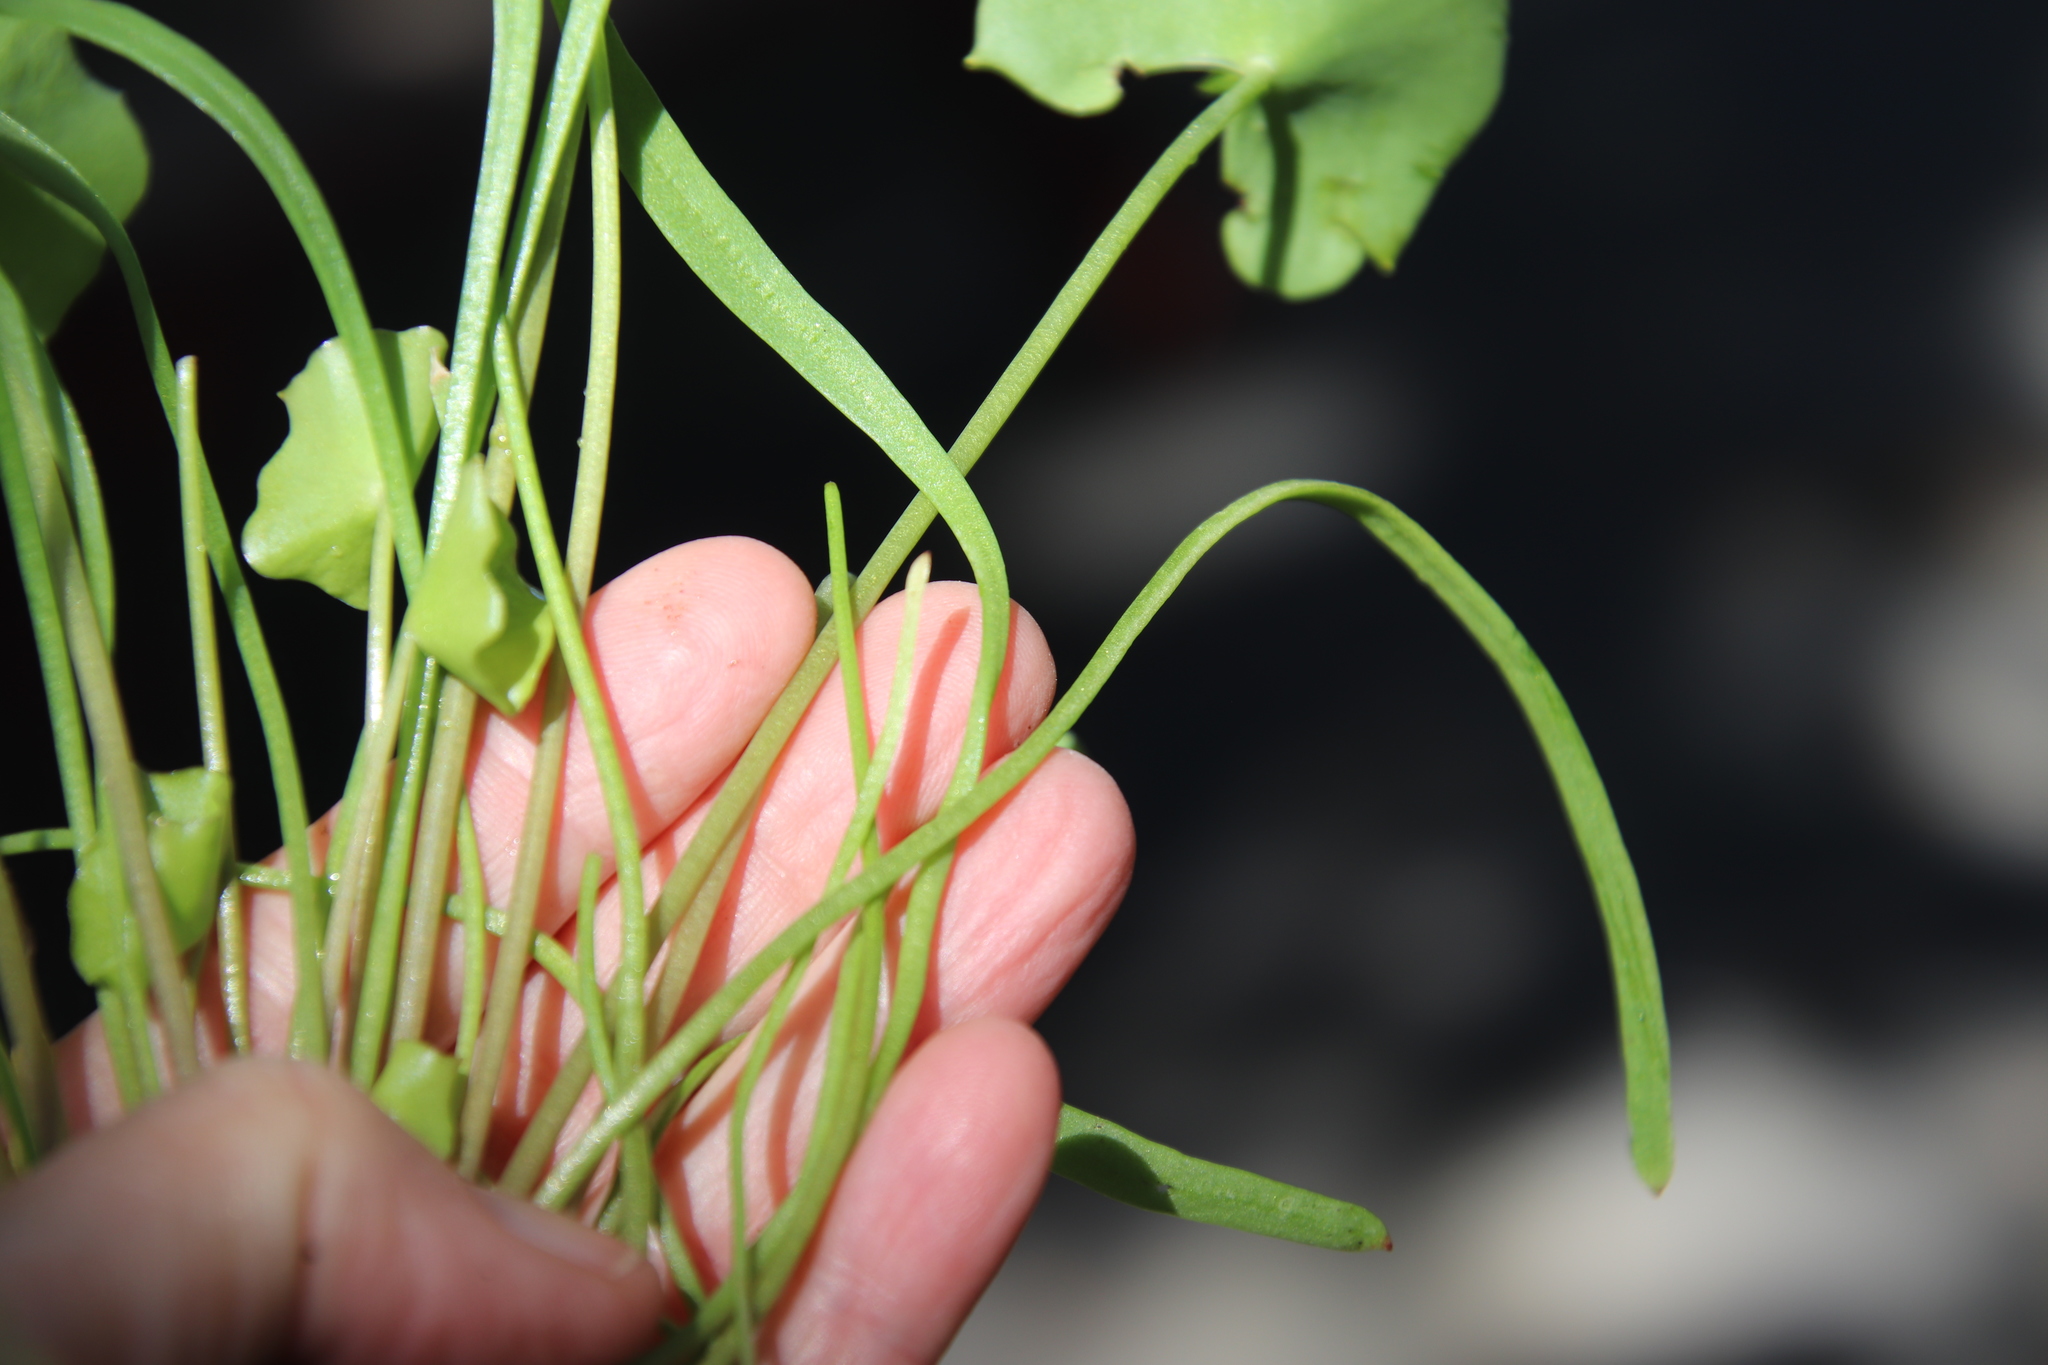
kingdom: Plantae
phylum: Tracheophyta
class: Magnoliopsida
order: Caryophyllales
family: Montiaceae
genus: Claytonia
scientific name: Claytonia parviflora
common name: Indian-lettuce
